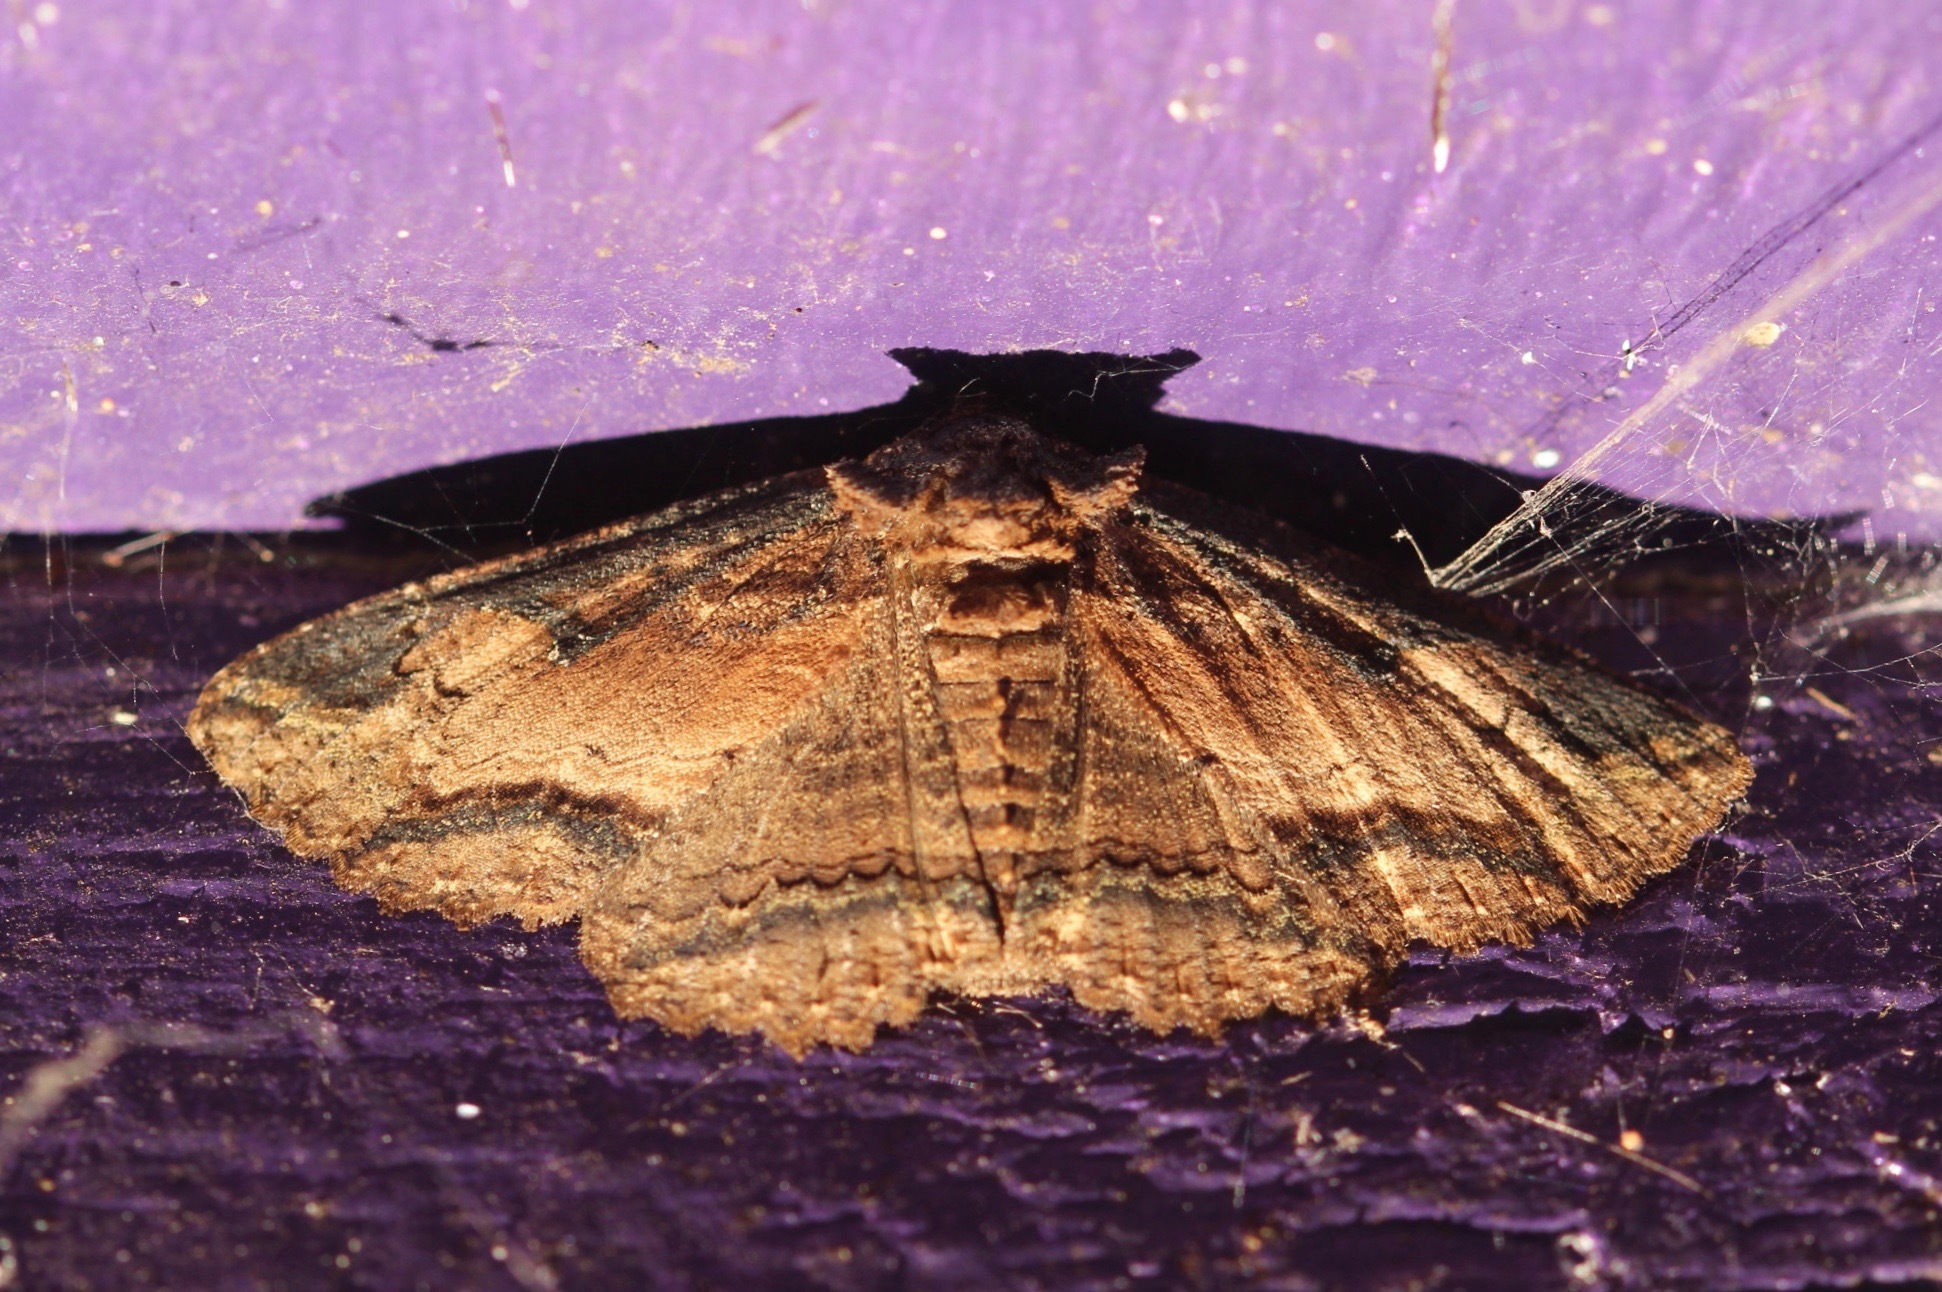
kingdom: Animalia
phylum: Arthropoda
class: Insecta
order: Lepidoptera
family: Erebidae
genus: Zale
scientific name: Zale lunata
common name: Lunate zale moth
